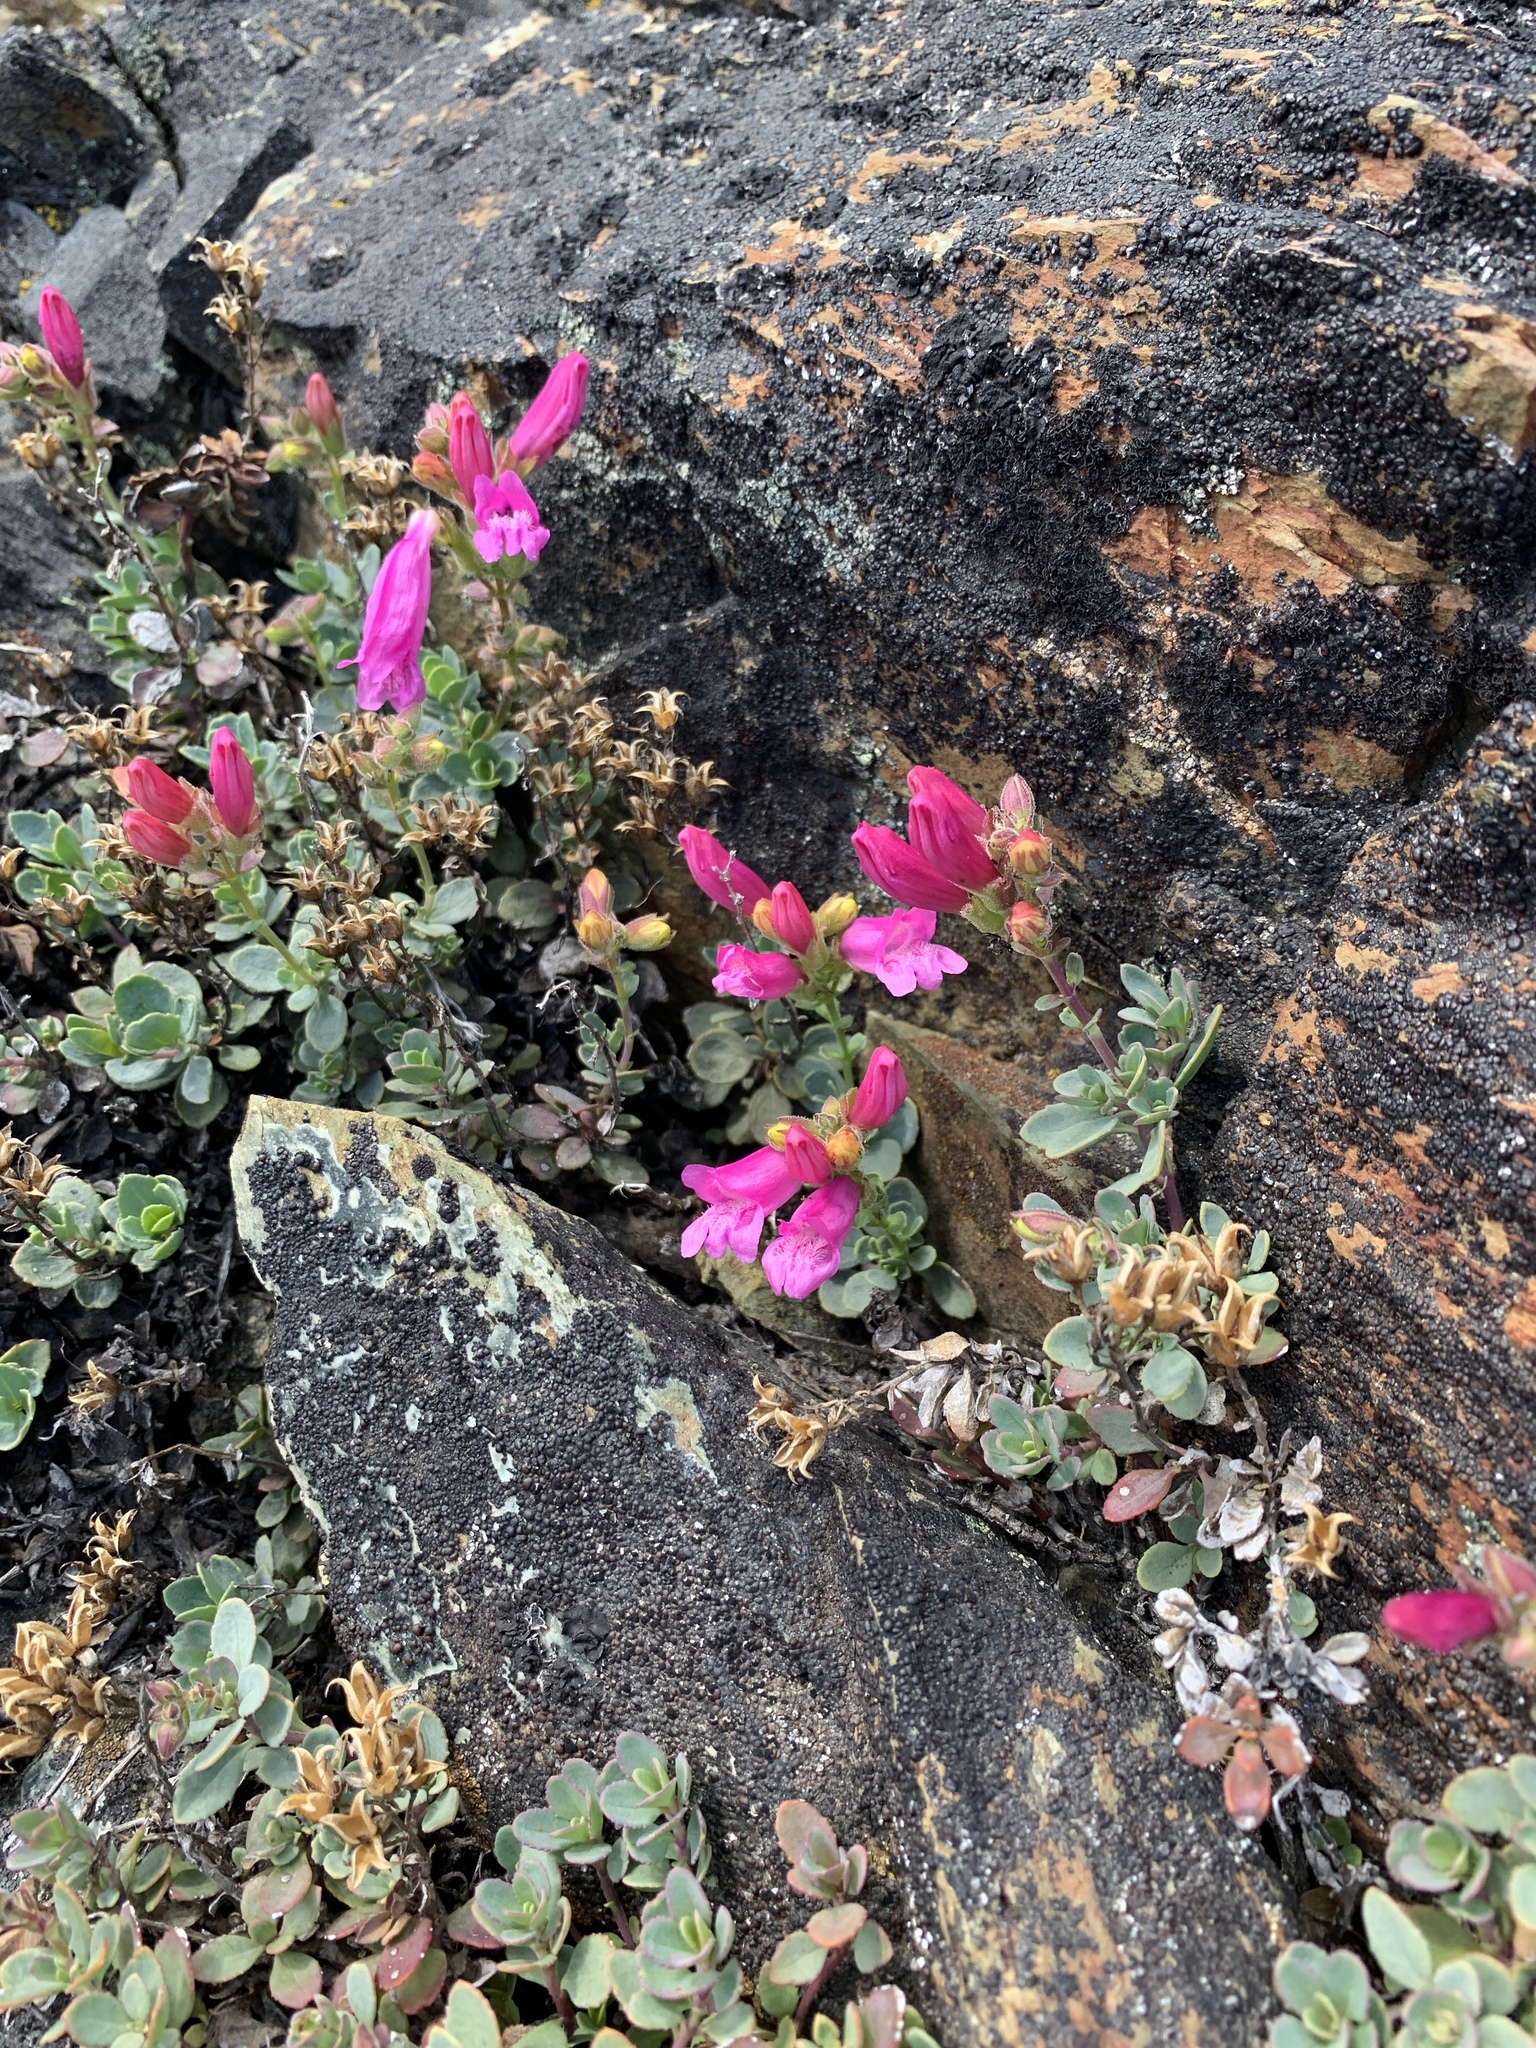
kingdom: Plantae
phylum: Tracheophyta
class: Magnoliopsida
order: Lamiales
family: Plantaginaceae
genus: Penstemon
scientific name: Penstemon newberryi
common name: Mountain-pride
